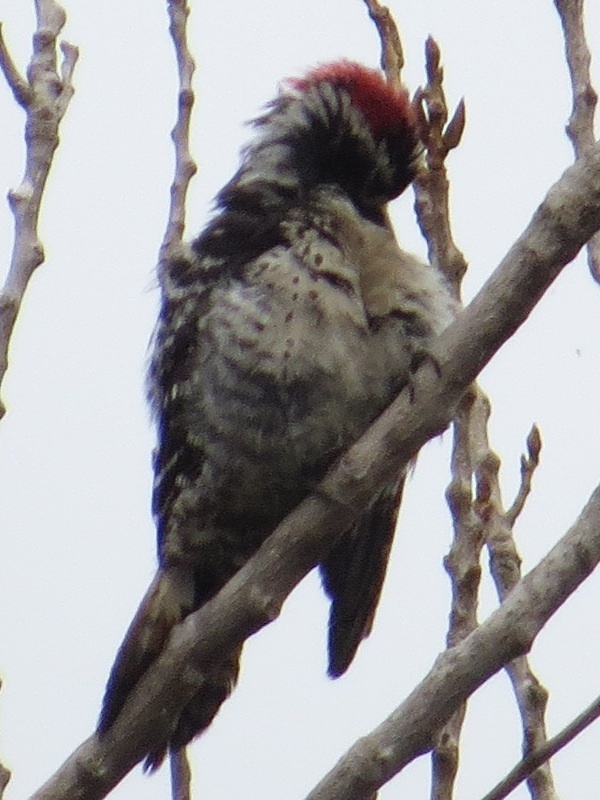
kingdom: Animalia
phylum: Chordata
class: Aves
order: Piciformes
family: Picidae
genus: Dryobates
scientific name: Dryobates nuttallii
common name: Nuttall's woodpecker
